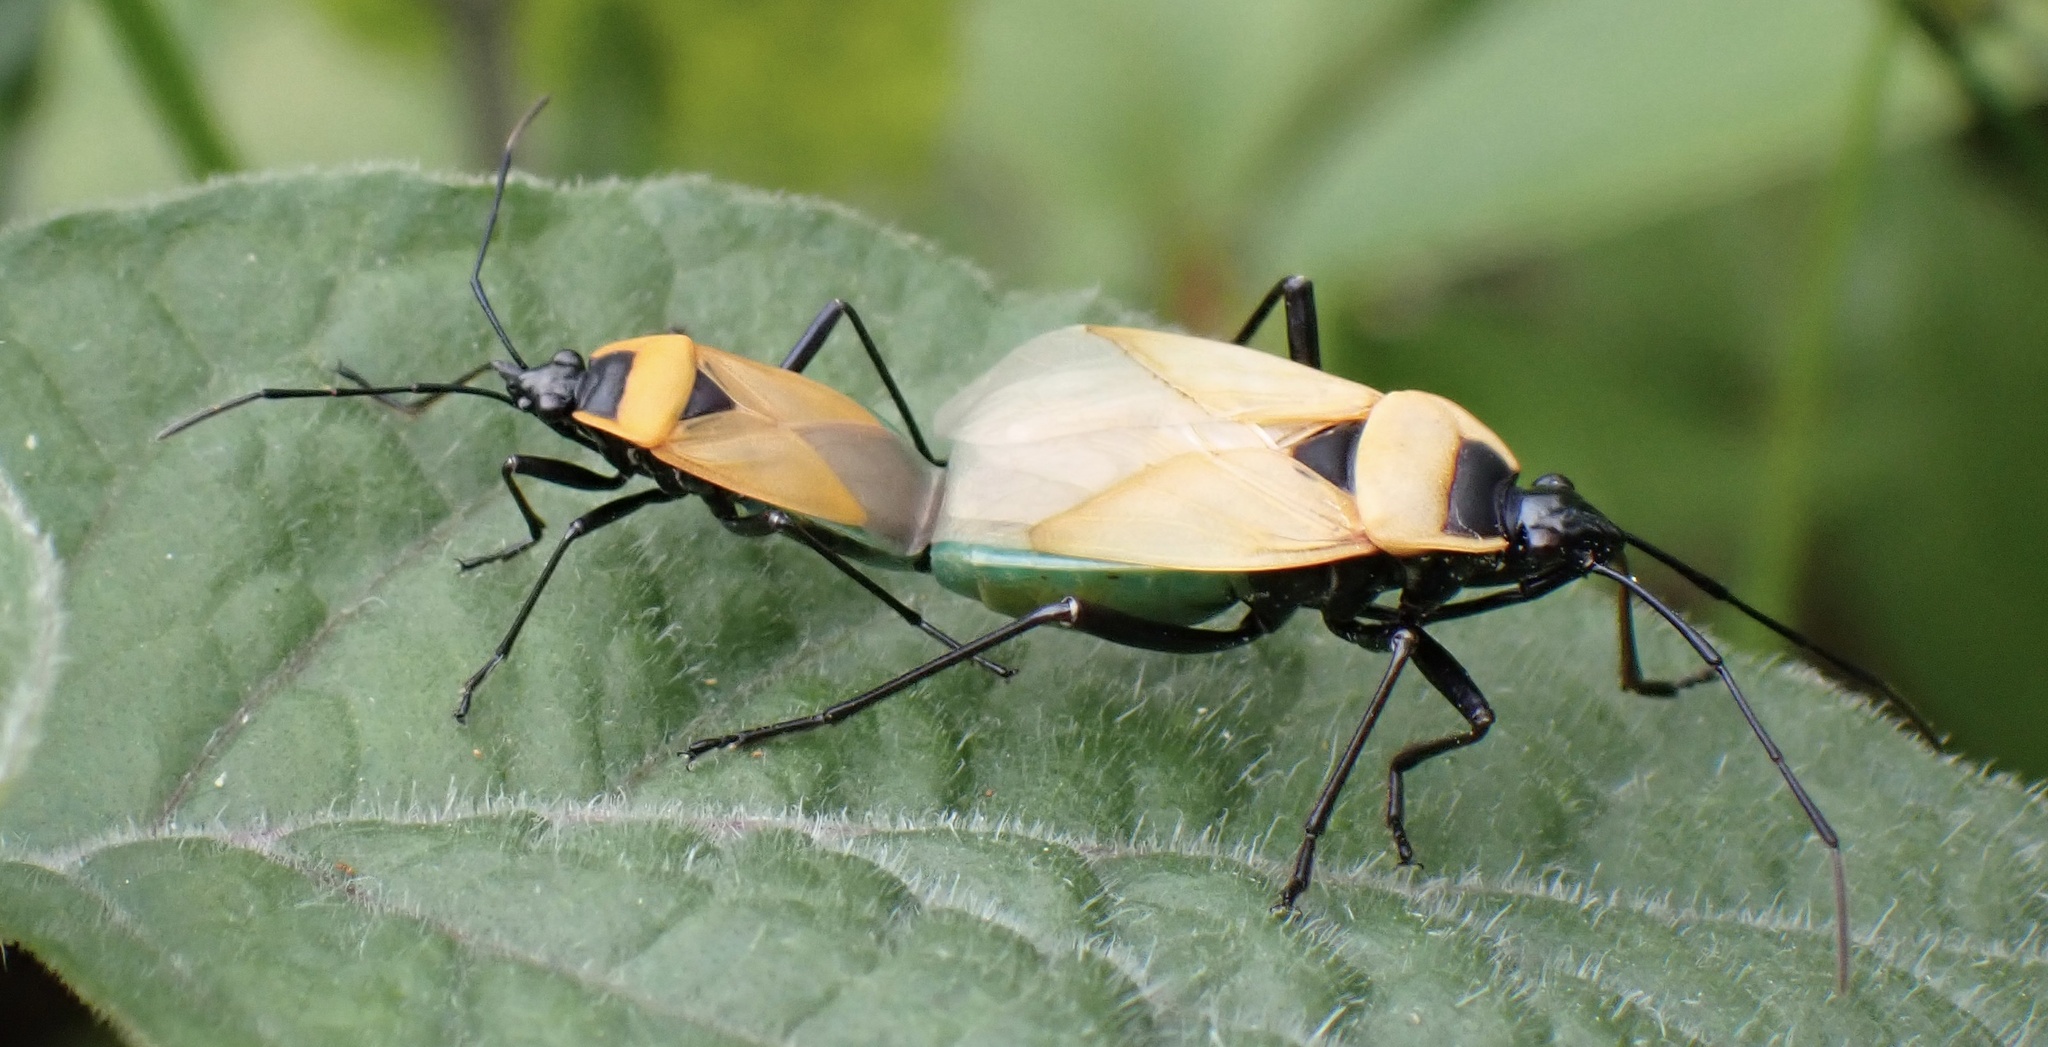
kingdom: Animalia
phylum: Arthropoda
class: Insecta
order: Hemiptera
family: Pyrrhocoridae
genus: Dindymus
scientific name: Dindymus
